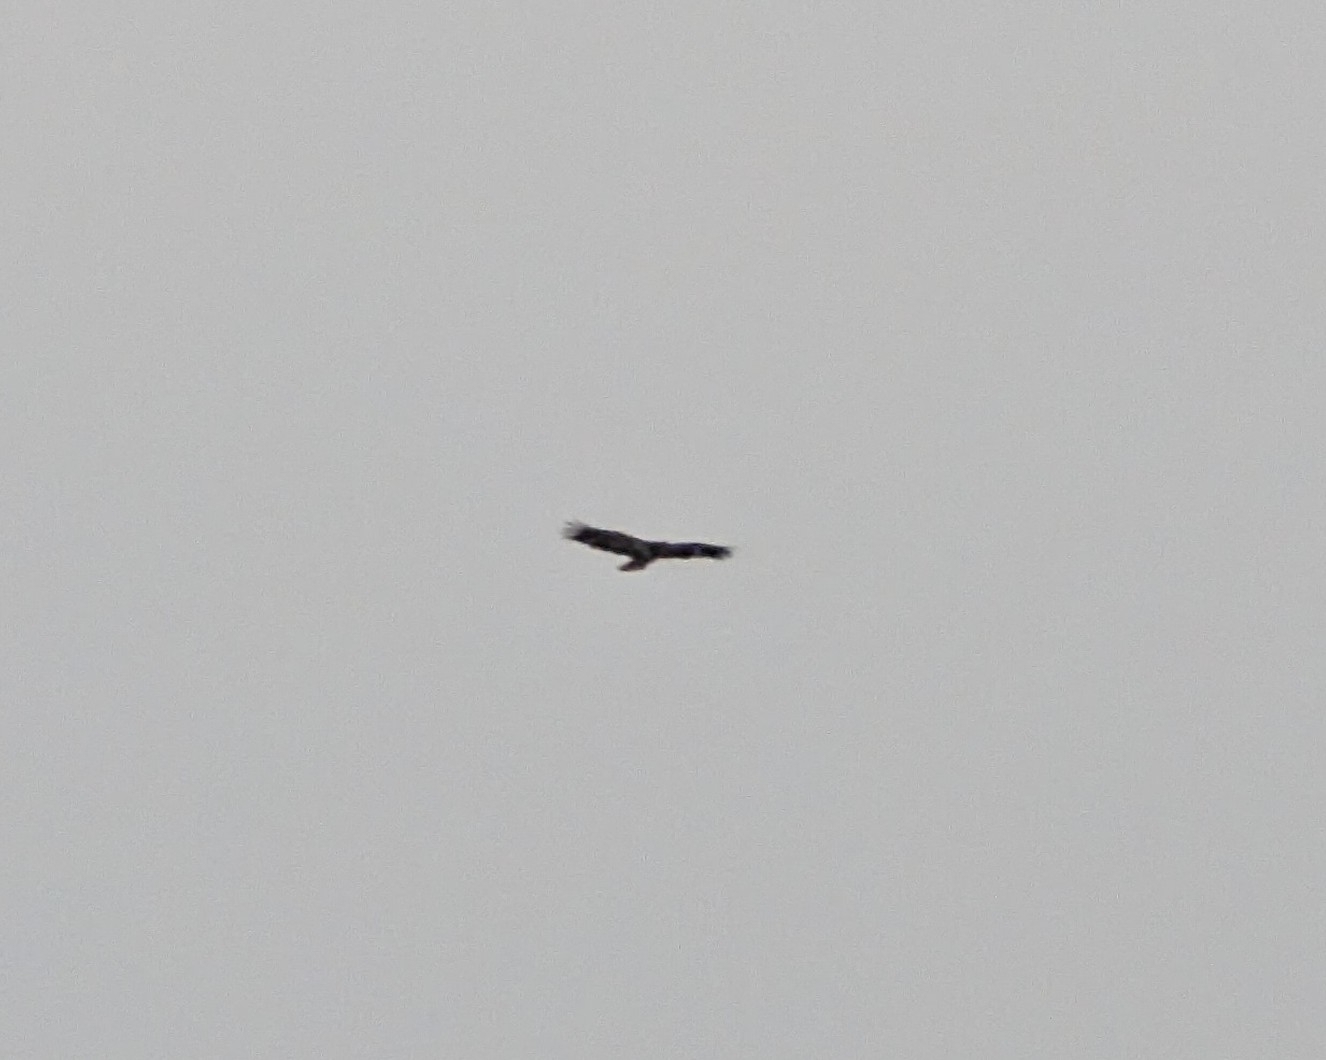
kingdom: Animalia
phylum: Chordata
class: Aves
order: Accipitriformes
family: Accipitridae
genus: Haliaeetus
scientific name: Haliaeetus leucocephalus
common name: Bald eagle
